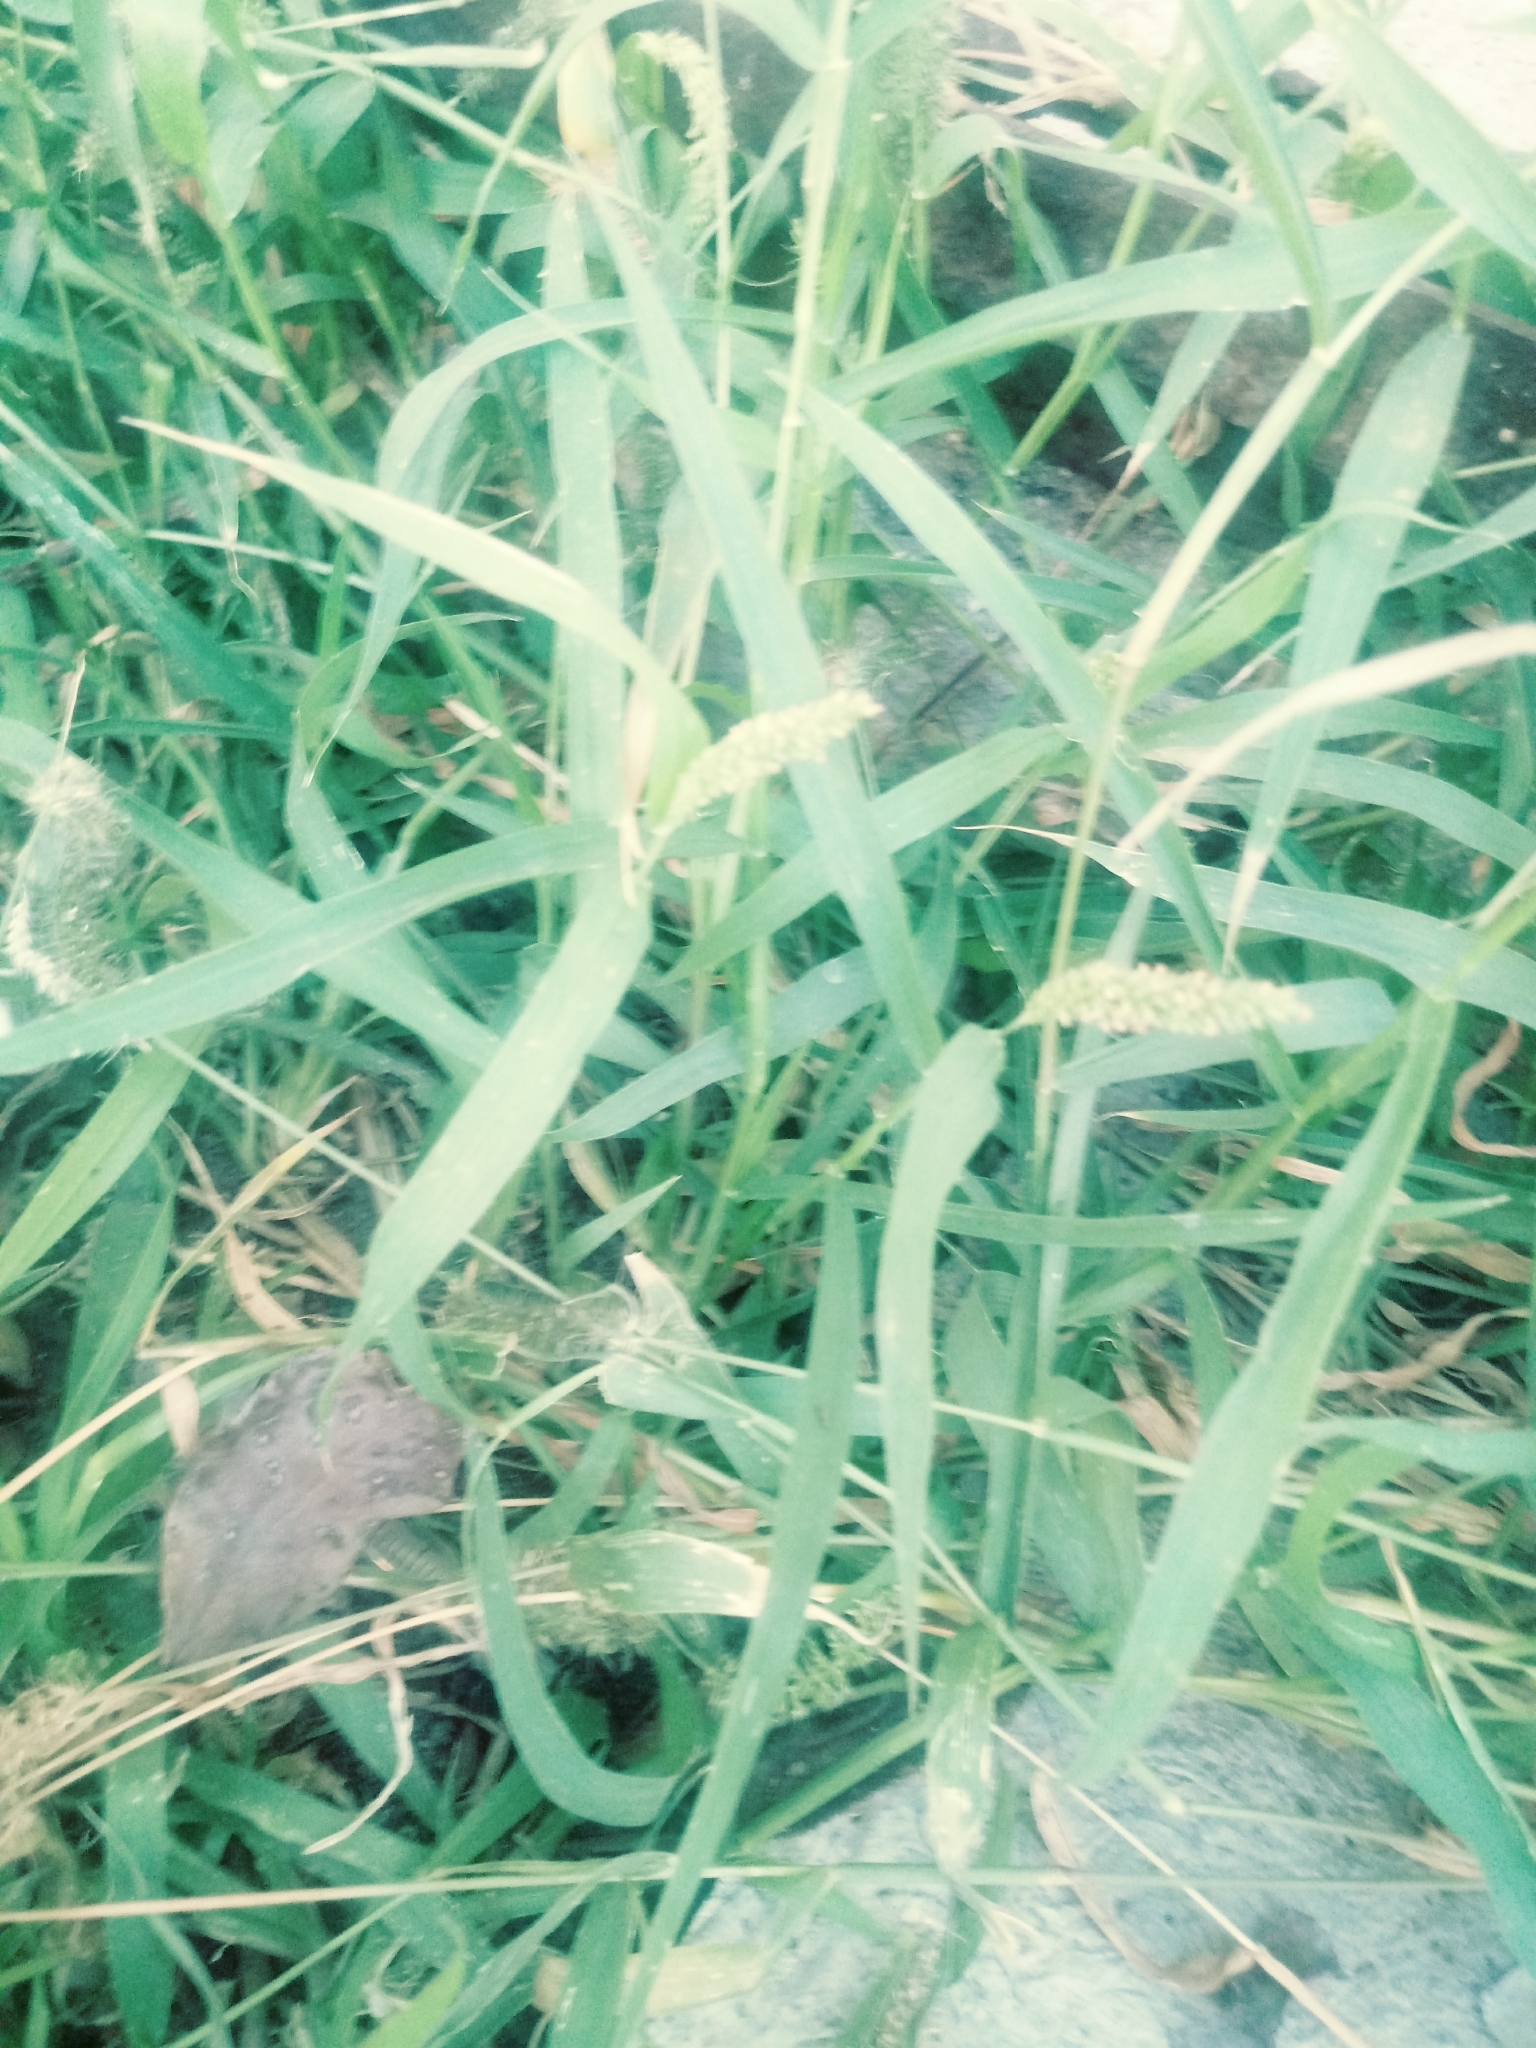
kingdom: Plantae
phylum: Tracheophyta
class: Liliopsida
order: Poales
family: Poaceae
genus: Setaria
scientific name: Setaria adhaerens
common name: Adherent bristle-grass
